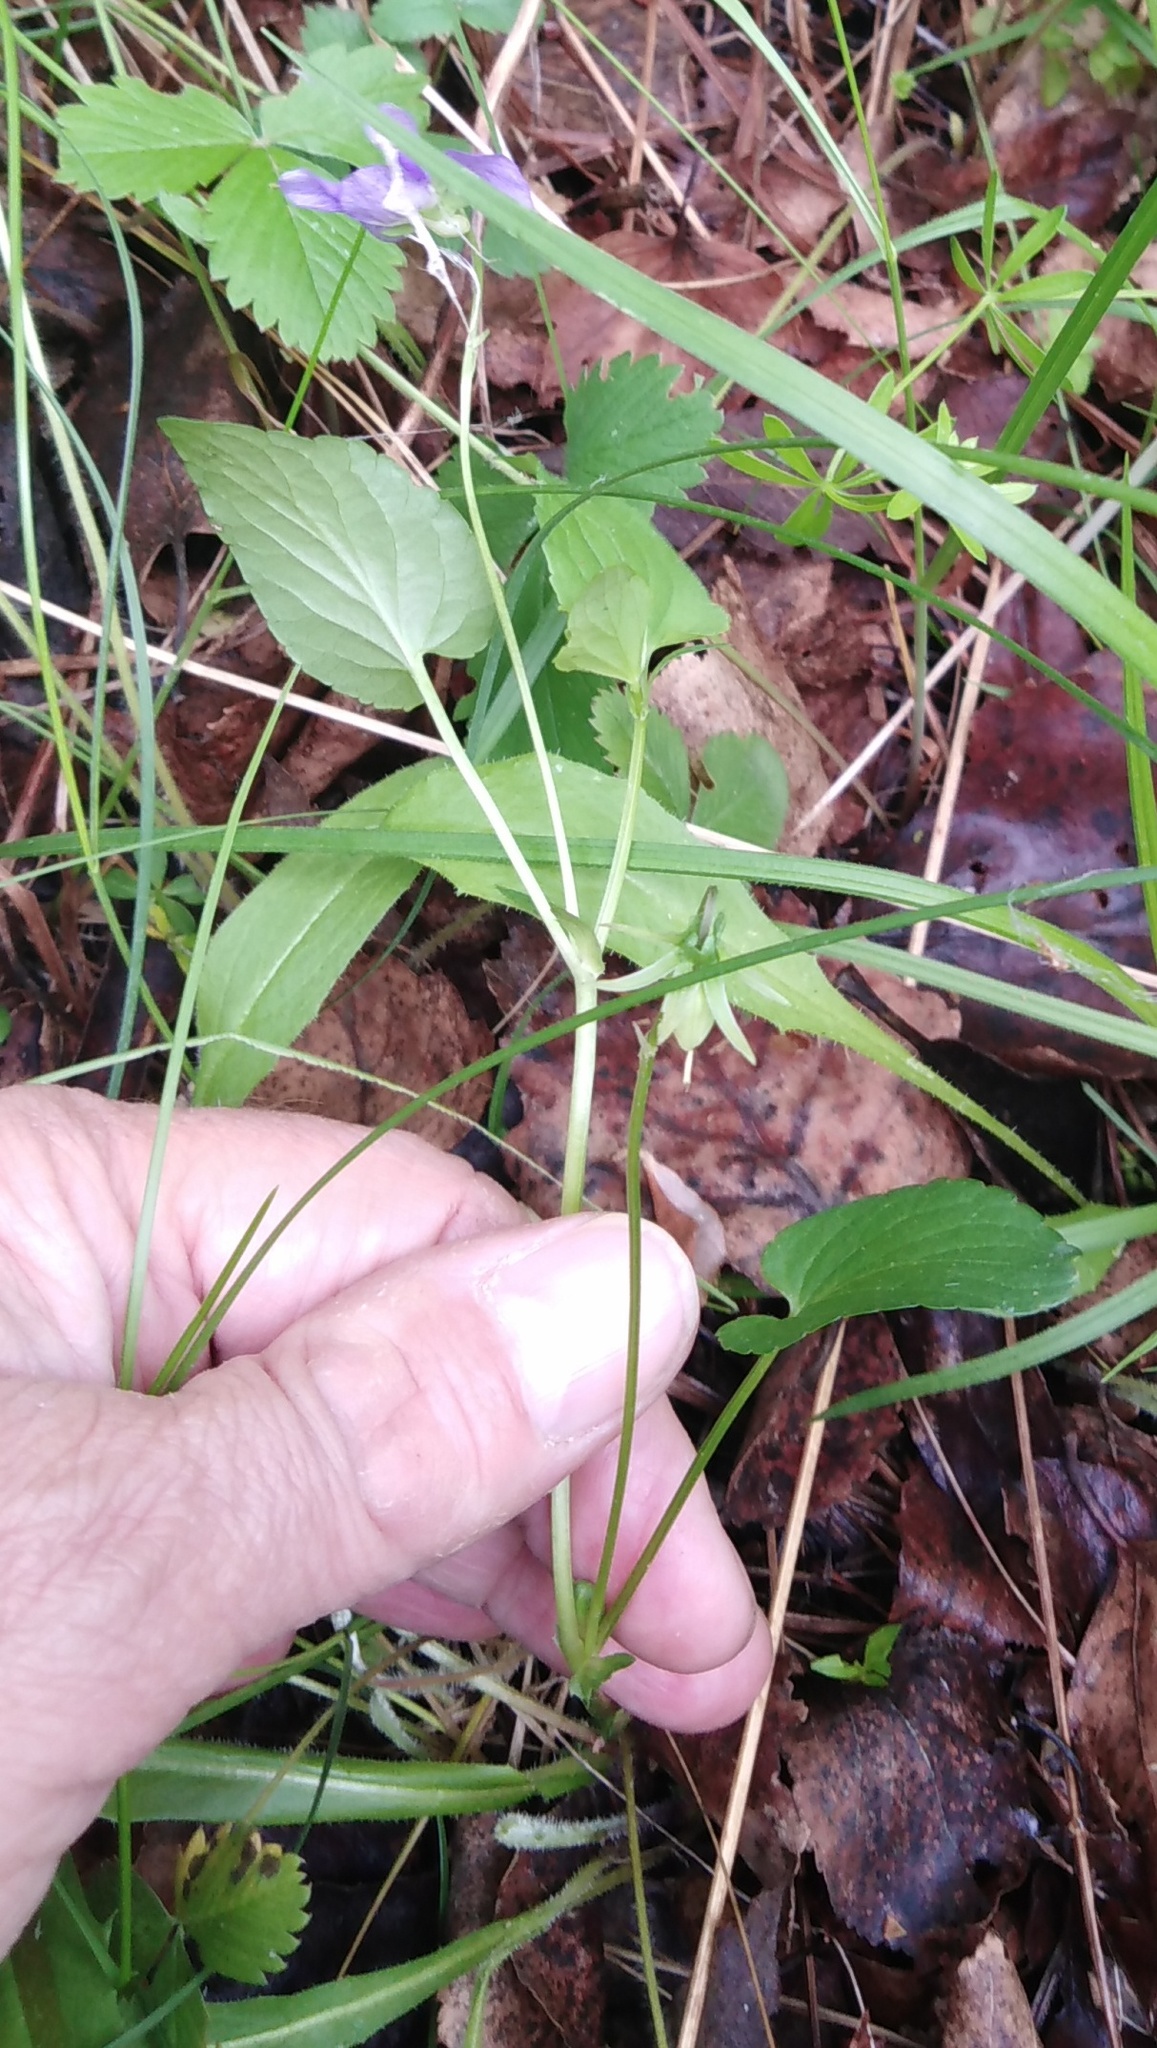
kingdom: Plantae
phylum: Tracheophyta
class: Magnoliopsida
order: Malpighiales
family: Violaceae
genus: Viola
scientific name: Viola
